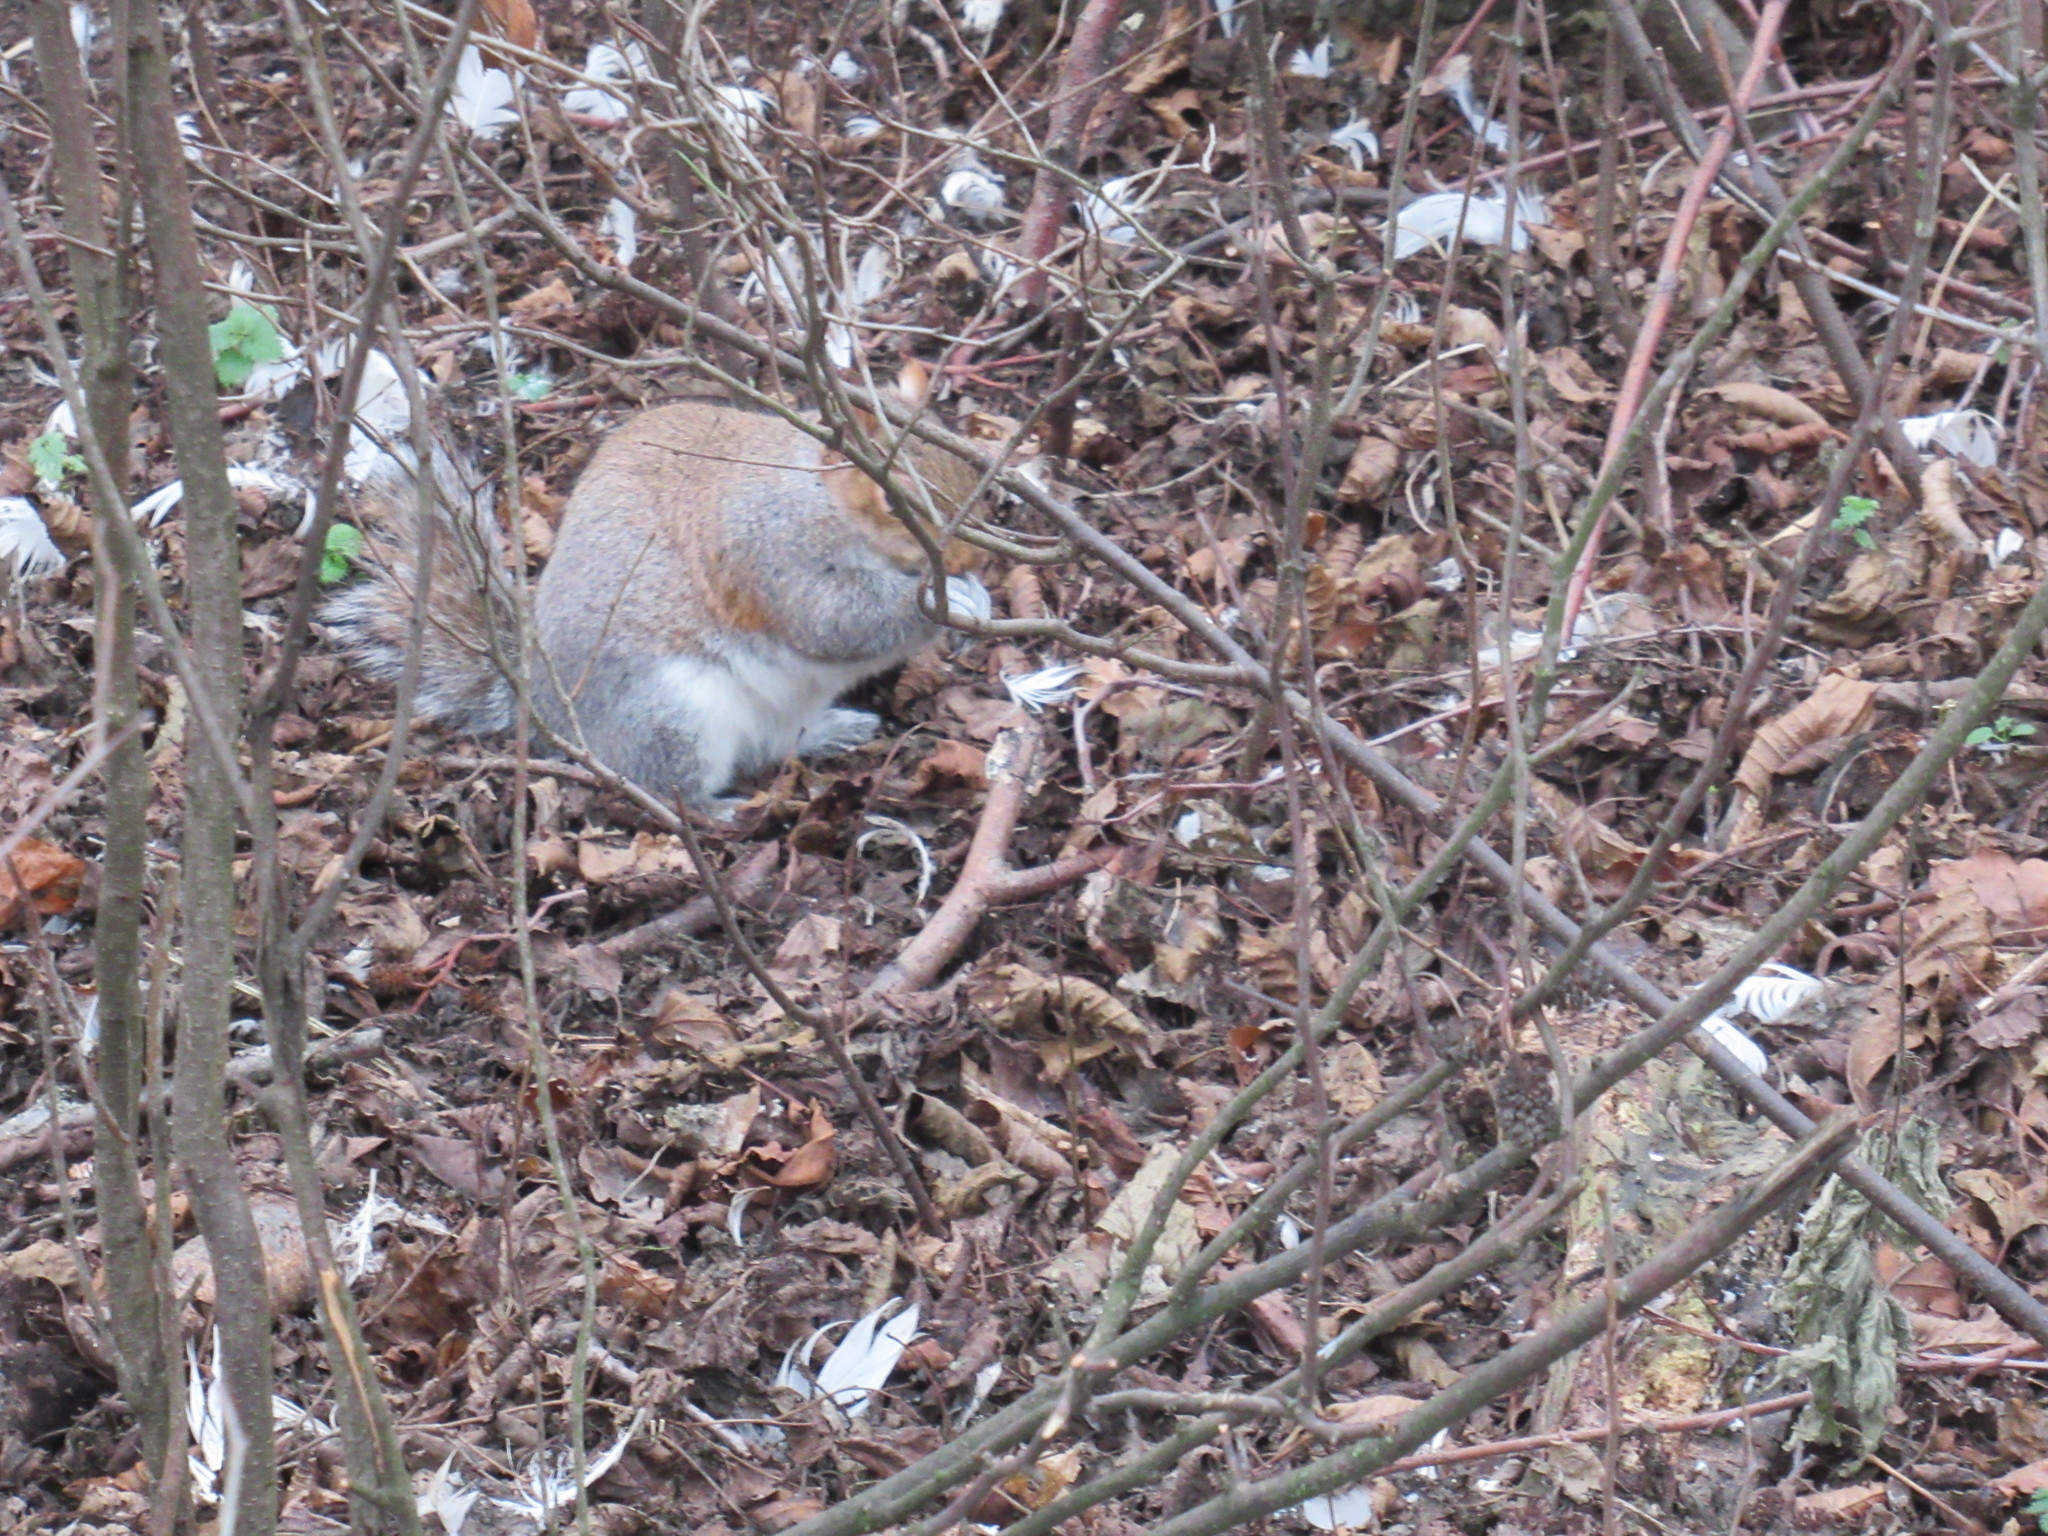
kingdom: Animalia
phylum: Chordata
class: Mammalia
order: Rodentia
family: Sciuridae
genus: Sciurus
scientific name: Sciurus carolinensis
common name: Eastern gray squirrel
